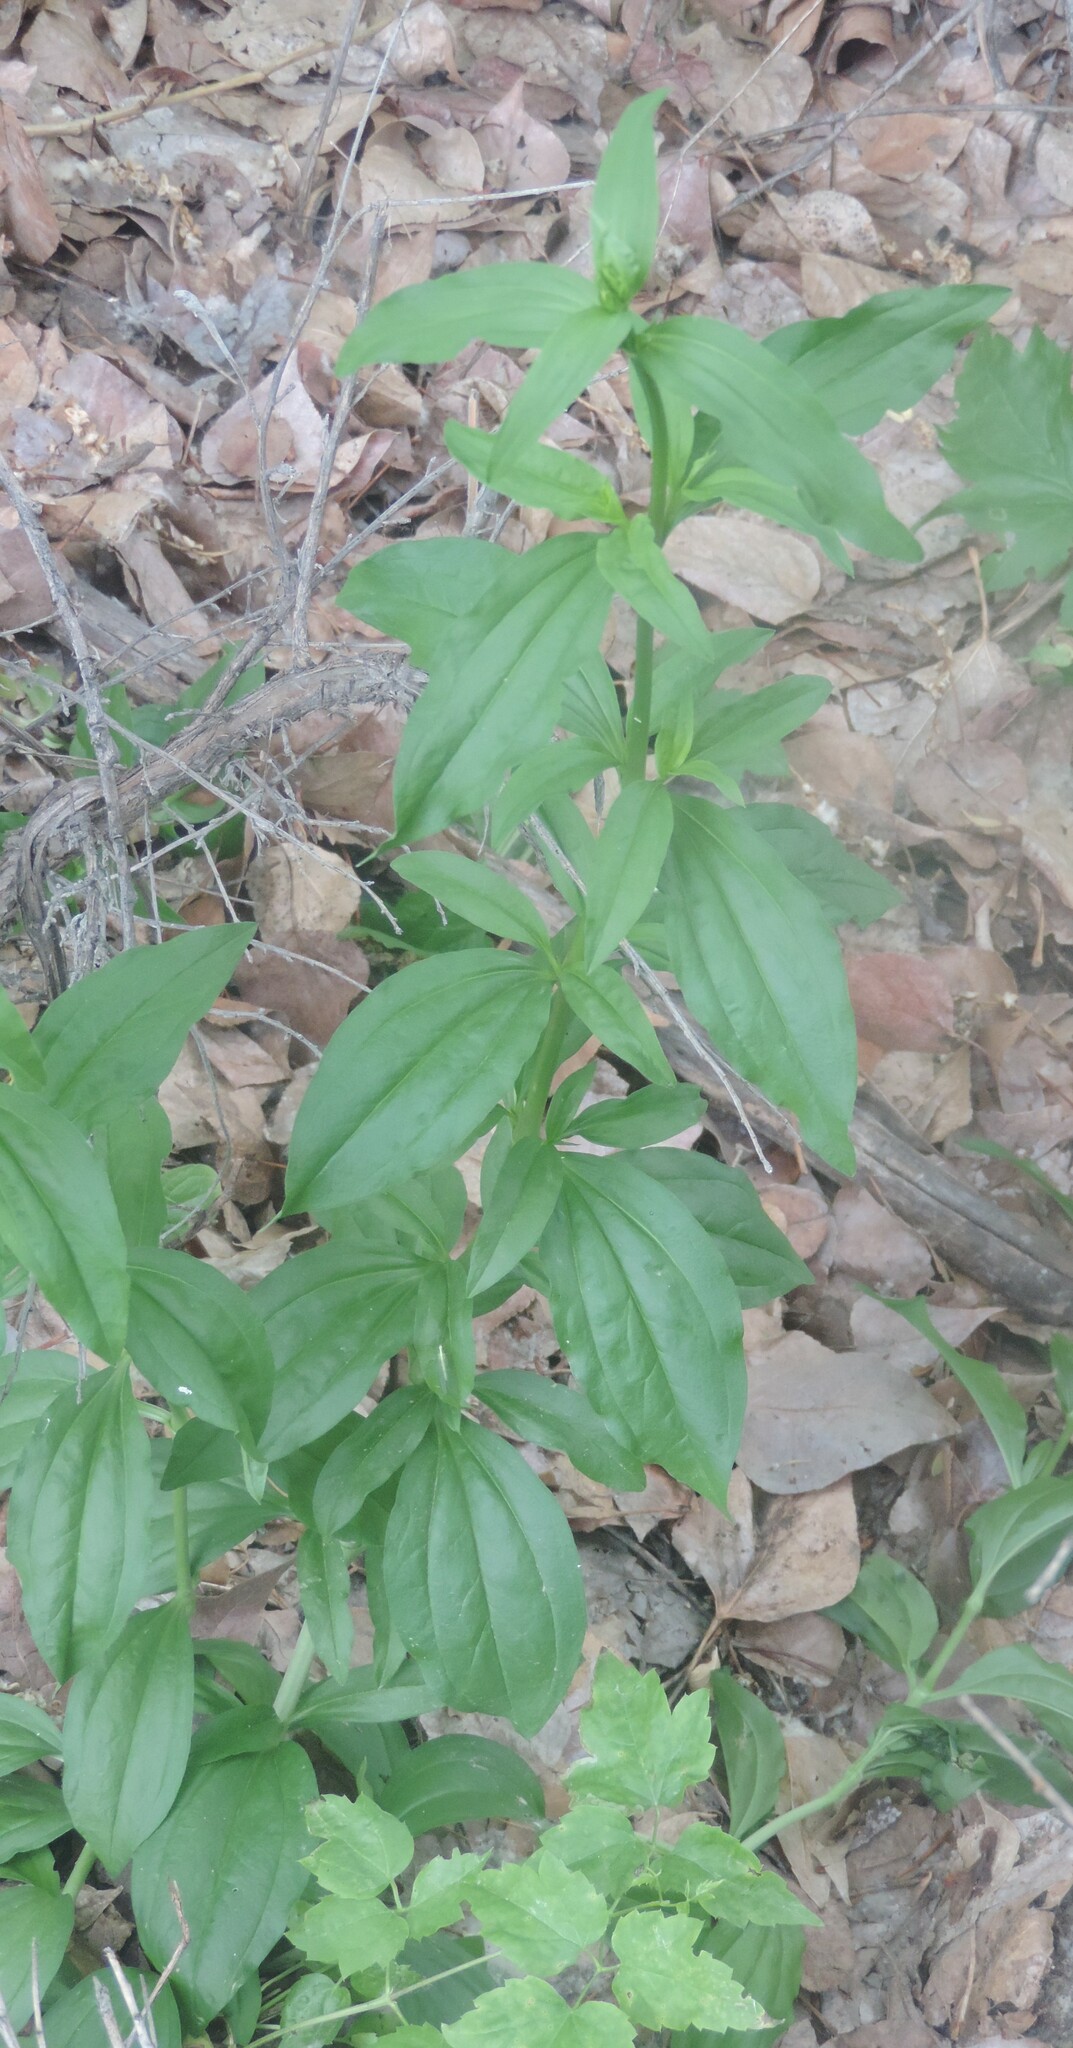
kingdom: Plantae
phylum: Tracheophyta
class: Magnoliopsida
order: Caryophyllales
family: Caryophyllaceae
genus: Saponaria
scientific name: Saponaria officinalis
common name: Soapwort
